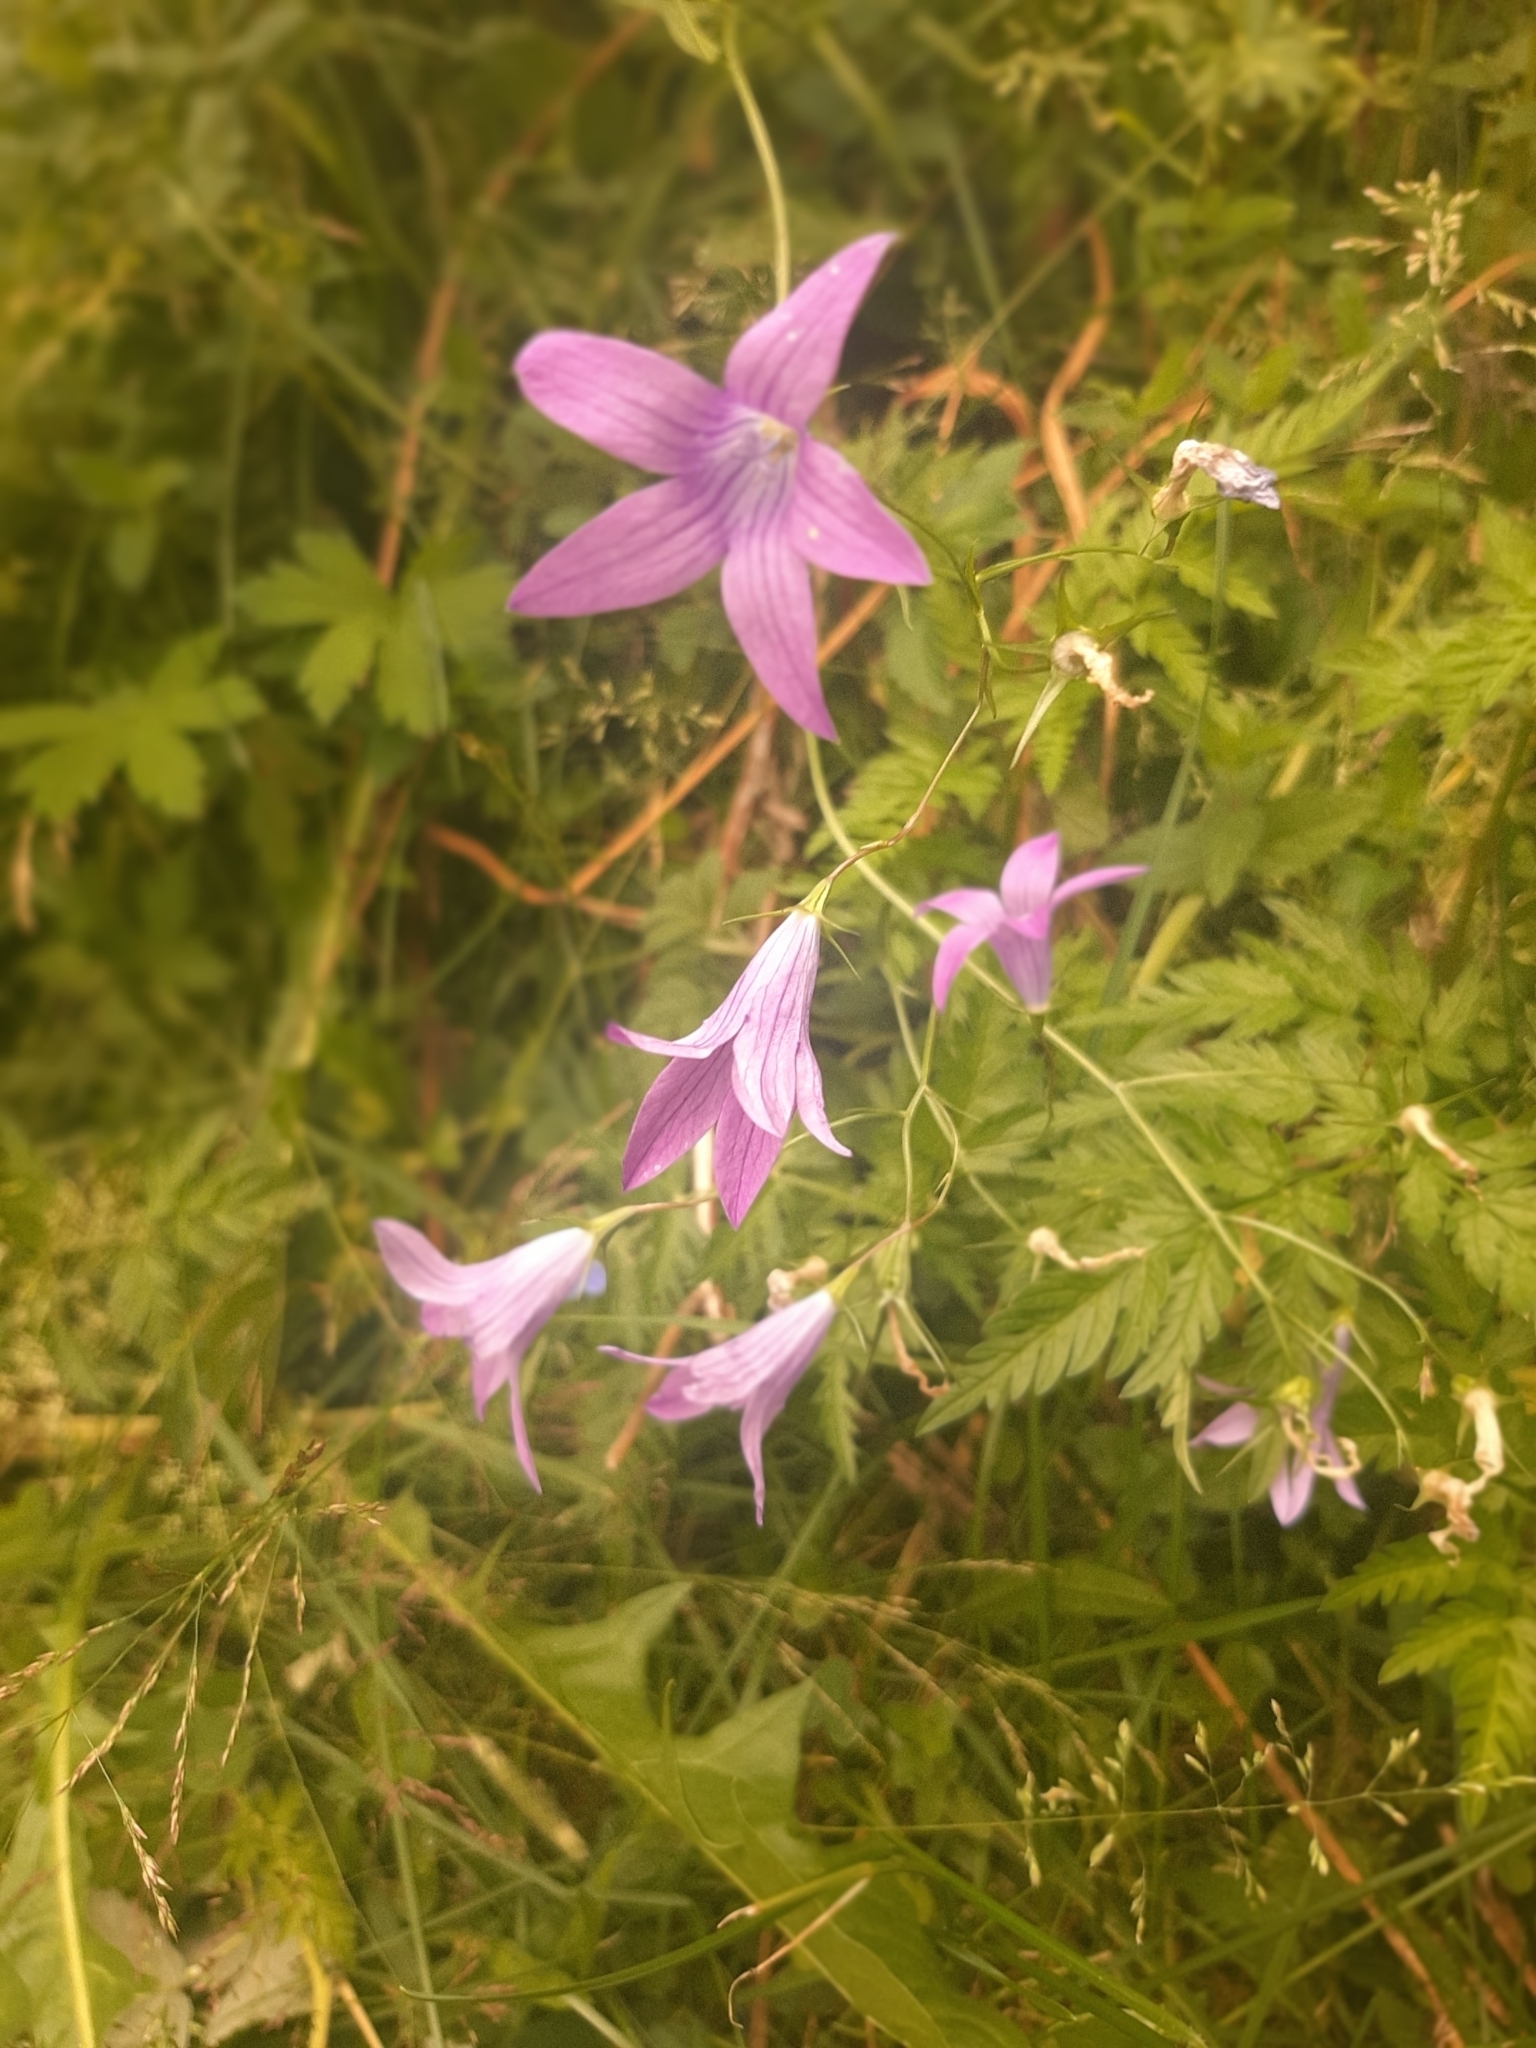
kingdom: Plantae
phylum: Tracheophyta
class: Magnoliopsida
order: Asterales
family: Campanulaceae
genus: Campanula
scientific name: Campanula patula
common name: Spreading bellflower
